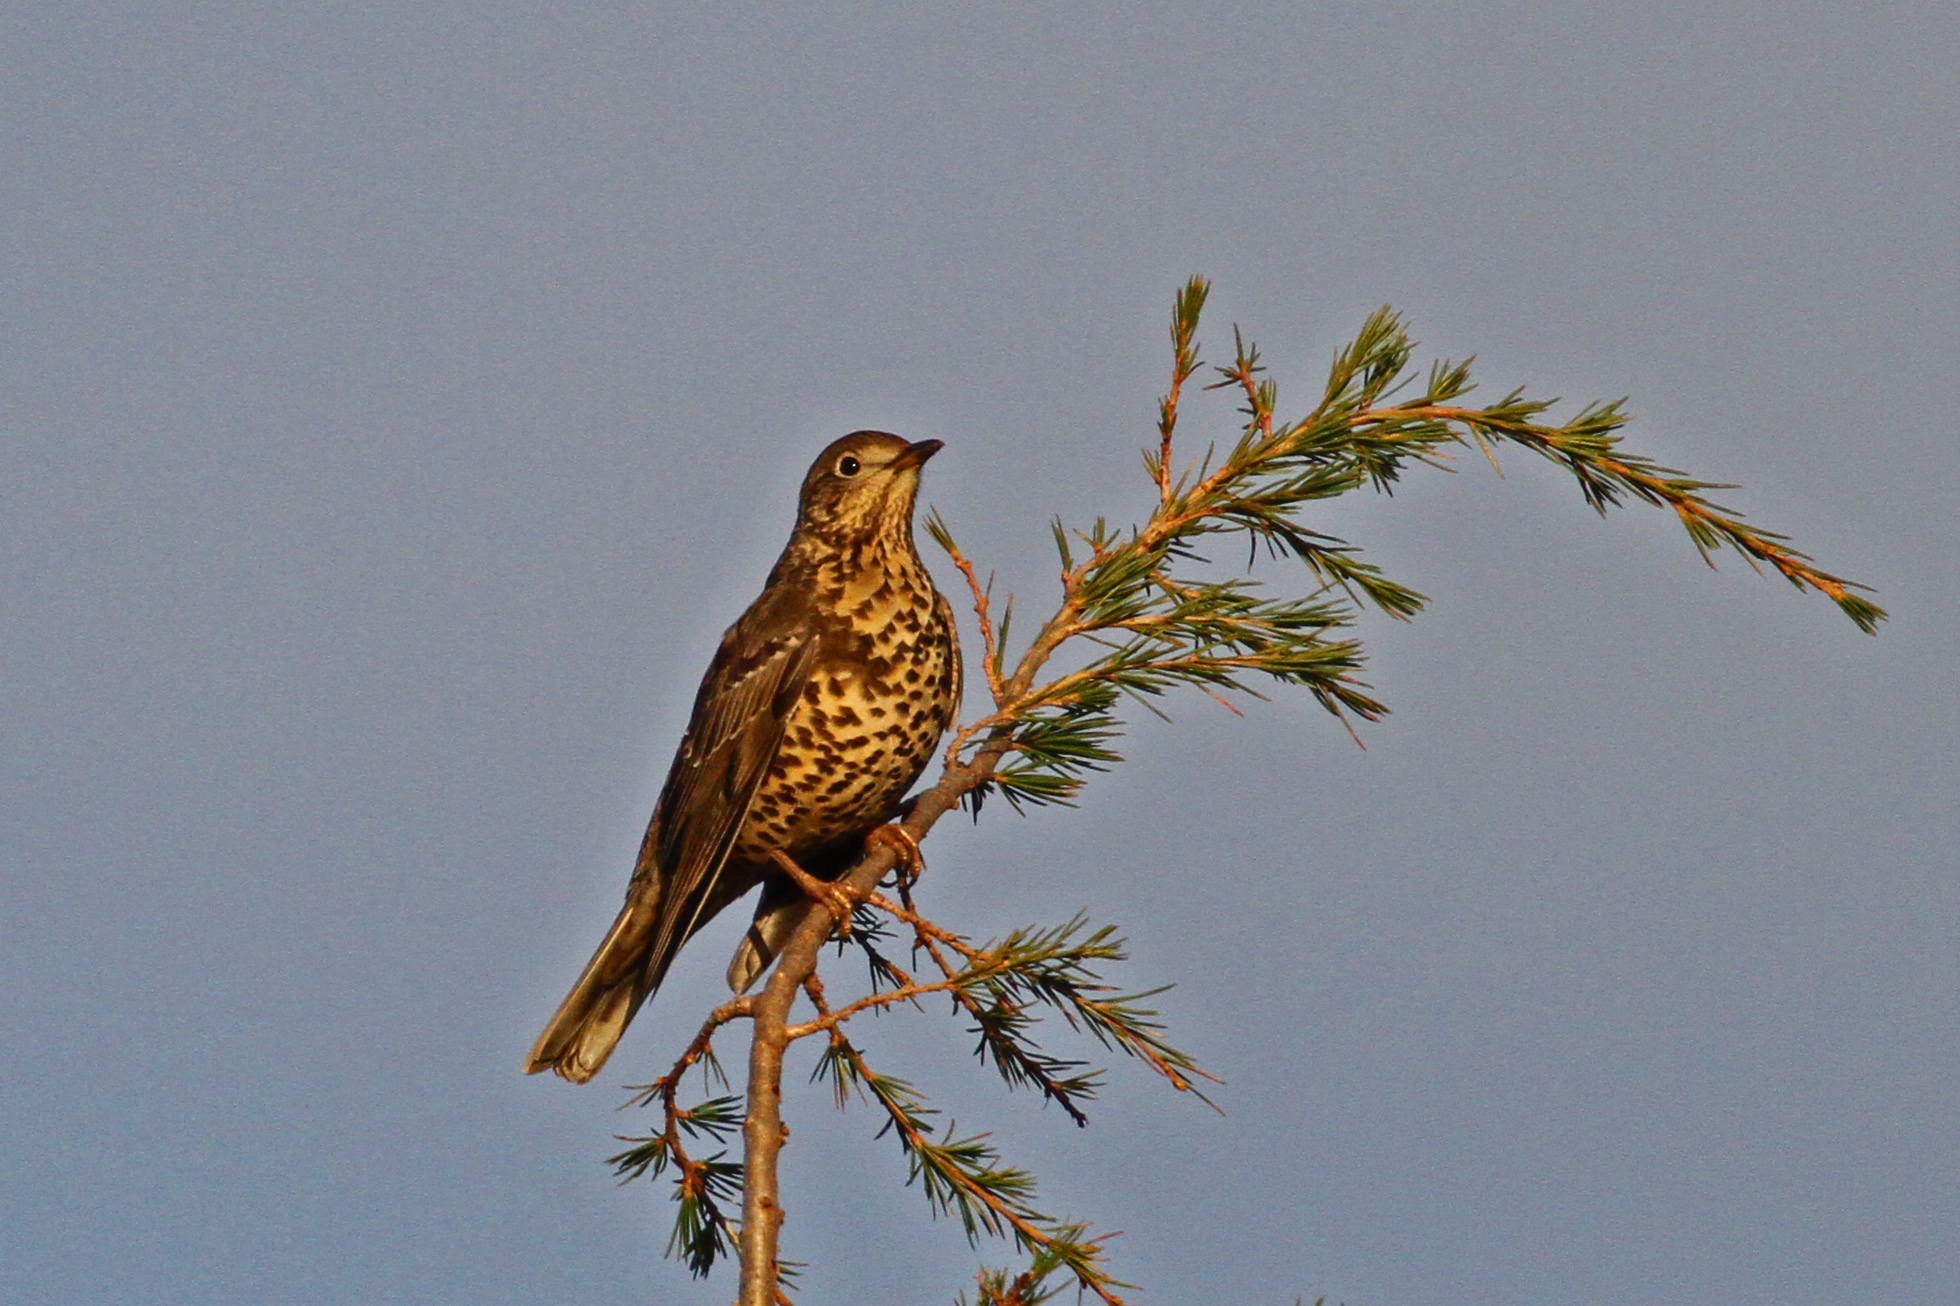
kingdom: Animalia
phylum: Chordata
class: Aves
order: Passeriformes
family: Turdidae
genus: Turdus
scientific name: Turdus viscivorus
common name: Mistle thrush
